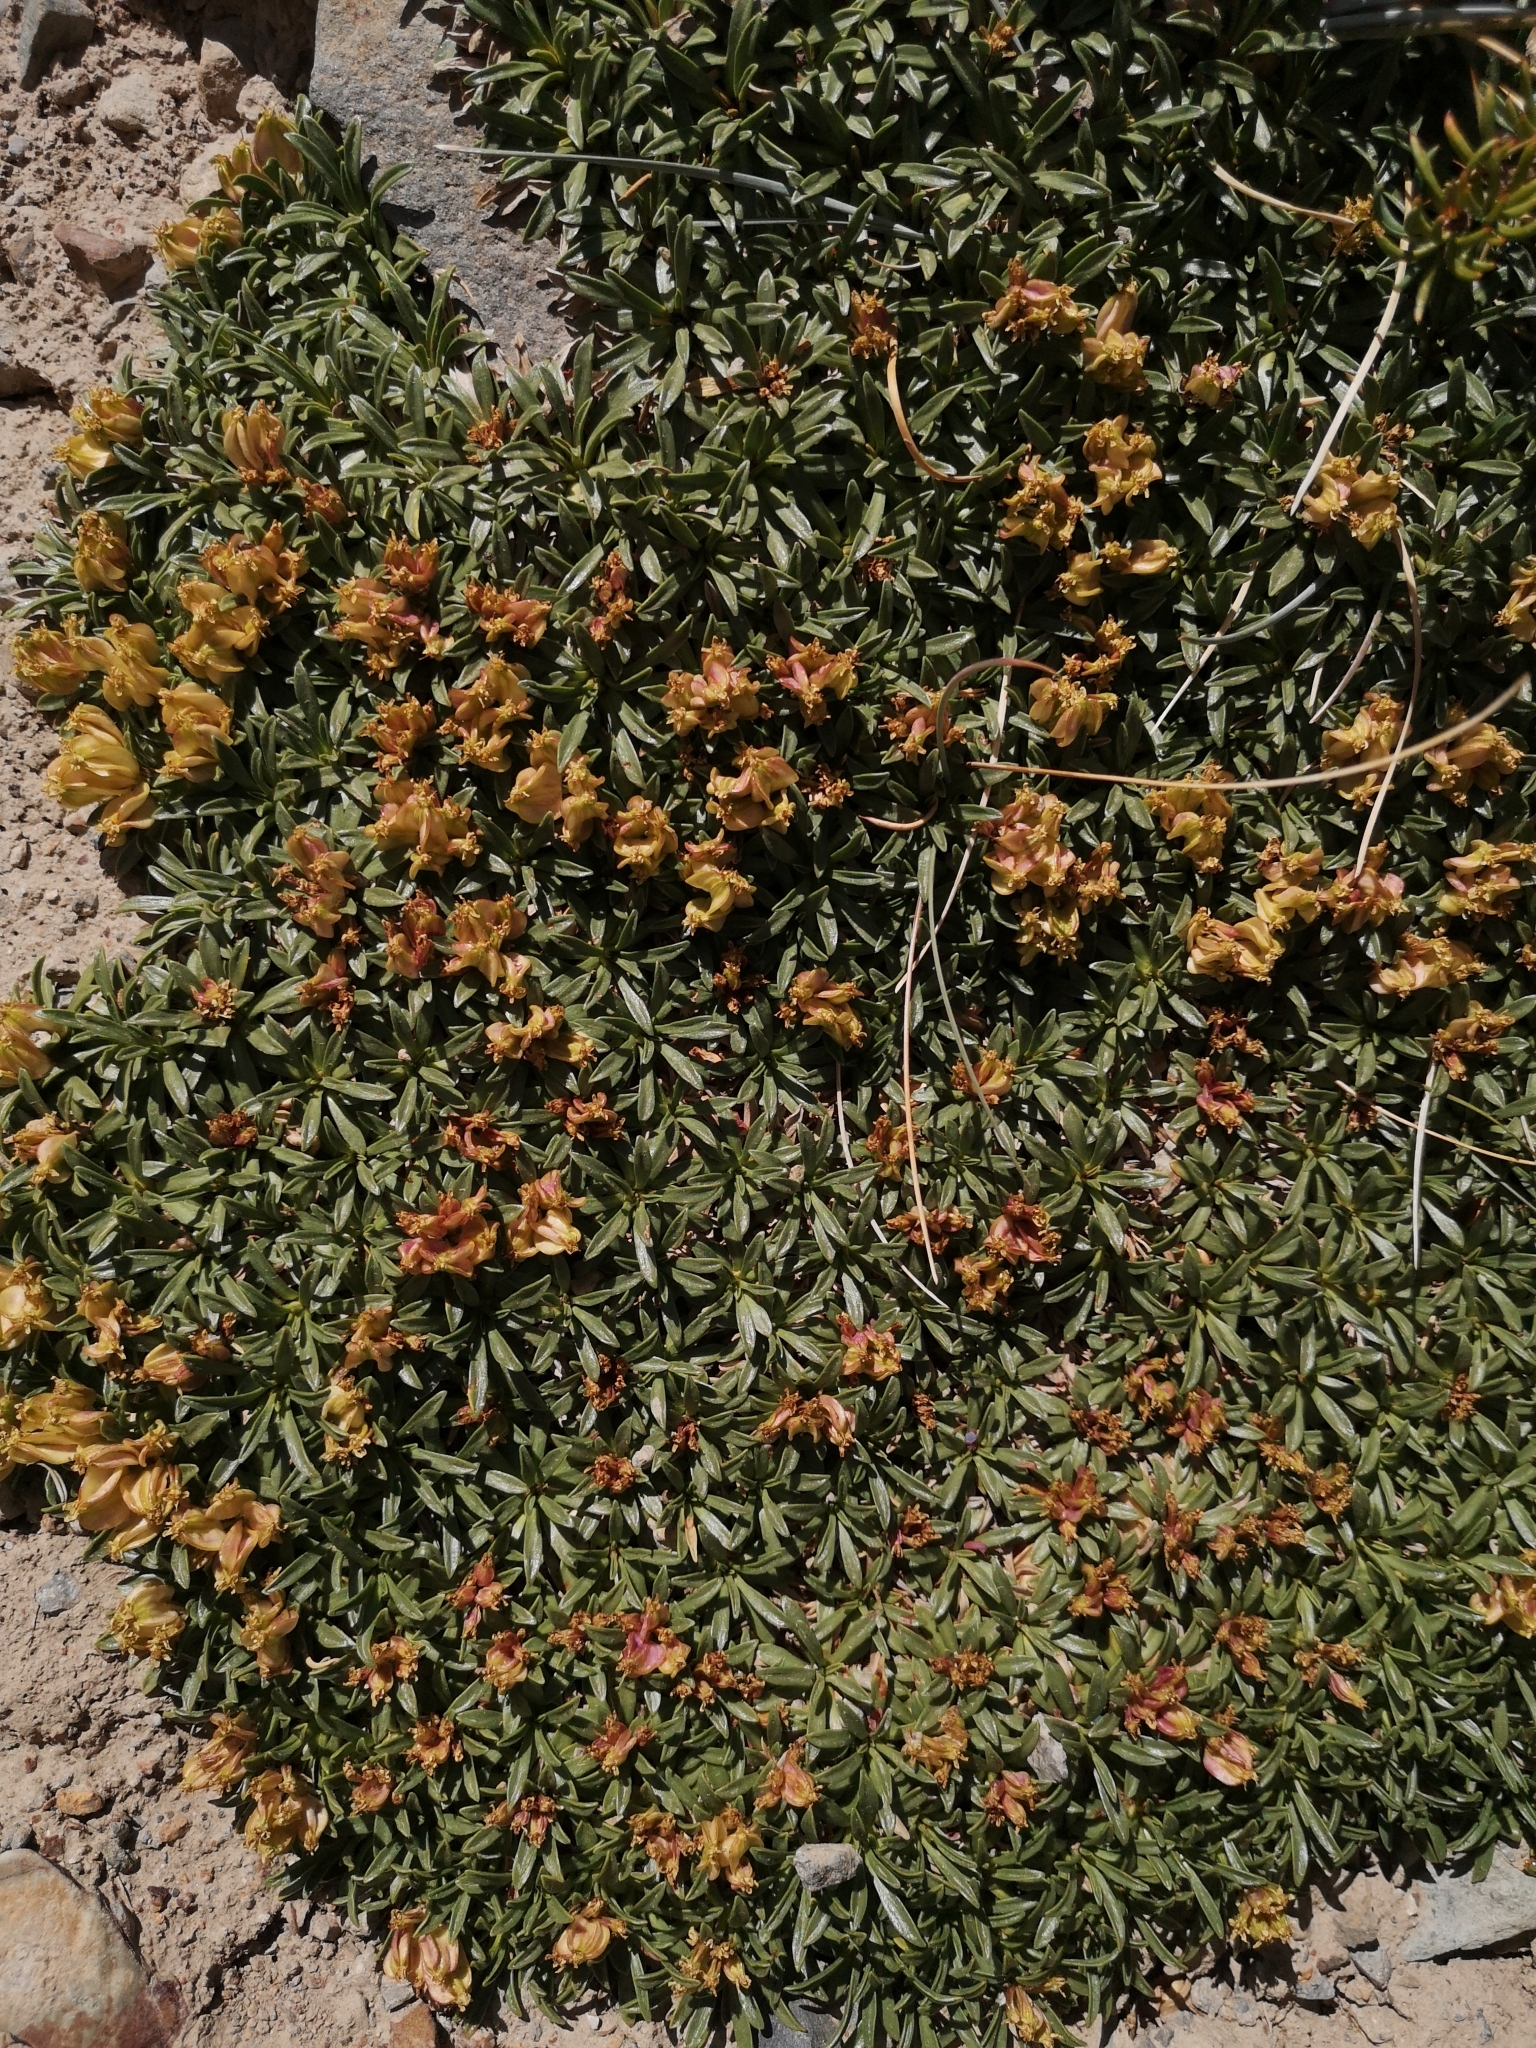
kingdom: Plantae
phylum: Tracheophyta
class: Magnoliopsida
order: Apiales
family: Apiaceae
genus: Azorella
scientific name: Azorella ruizii
